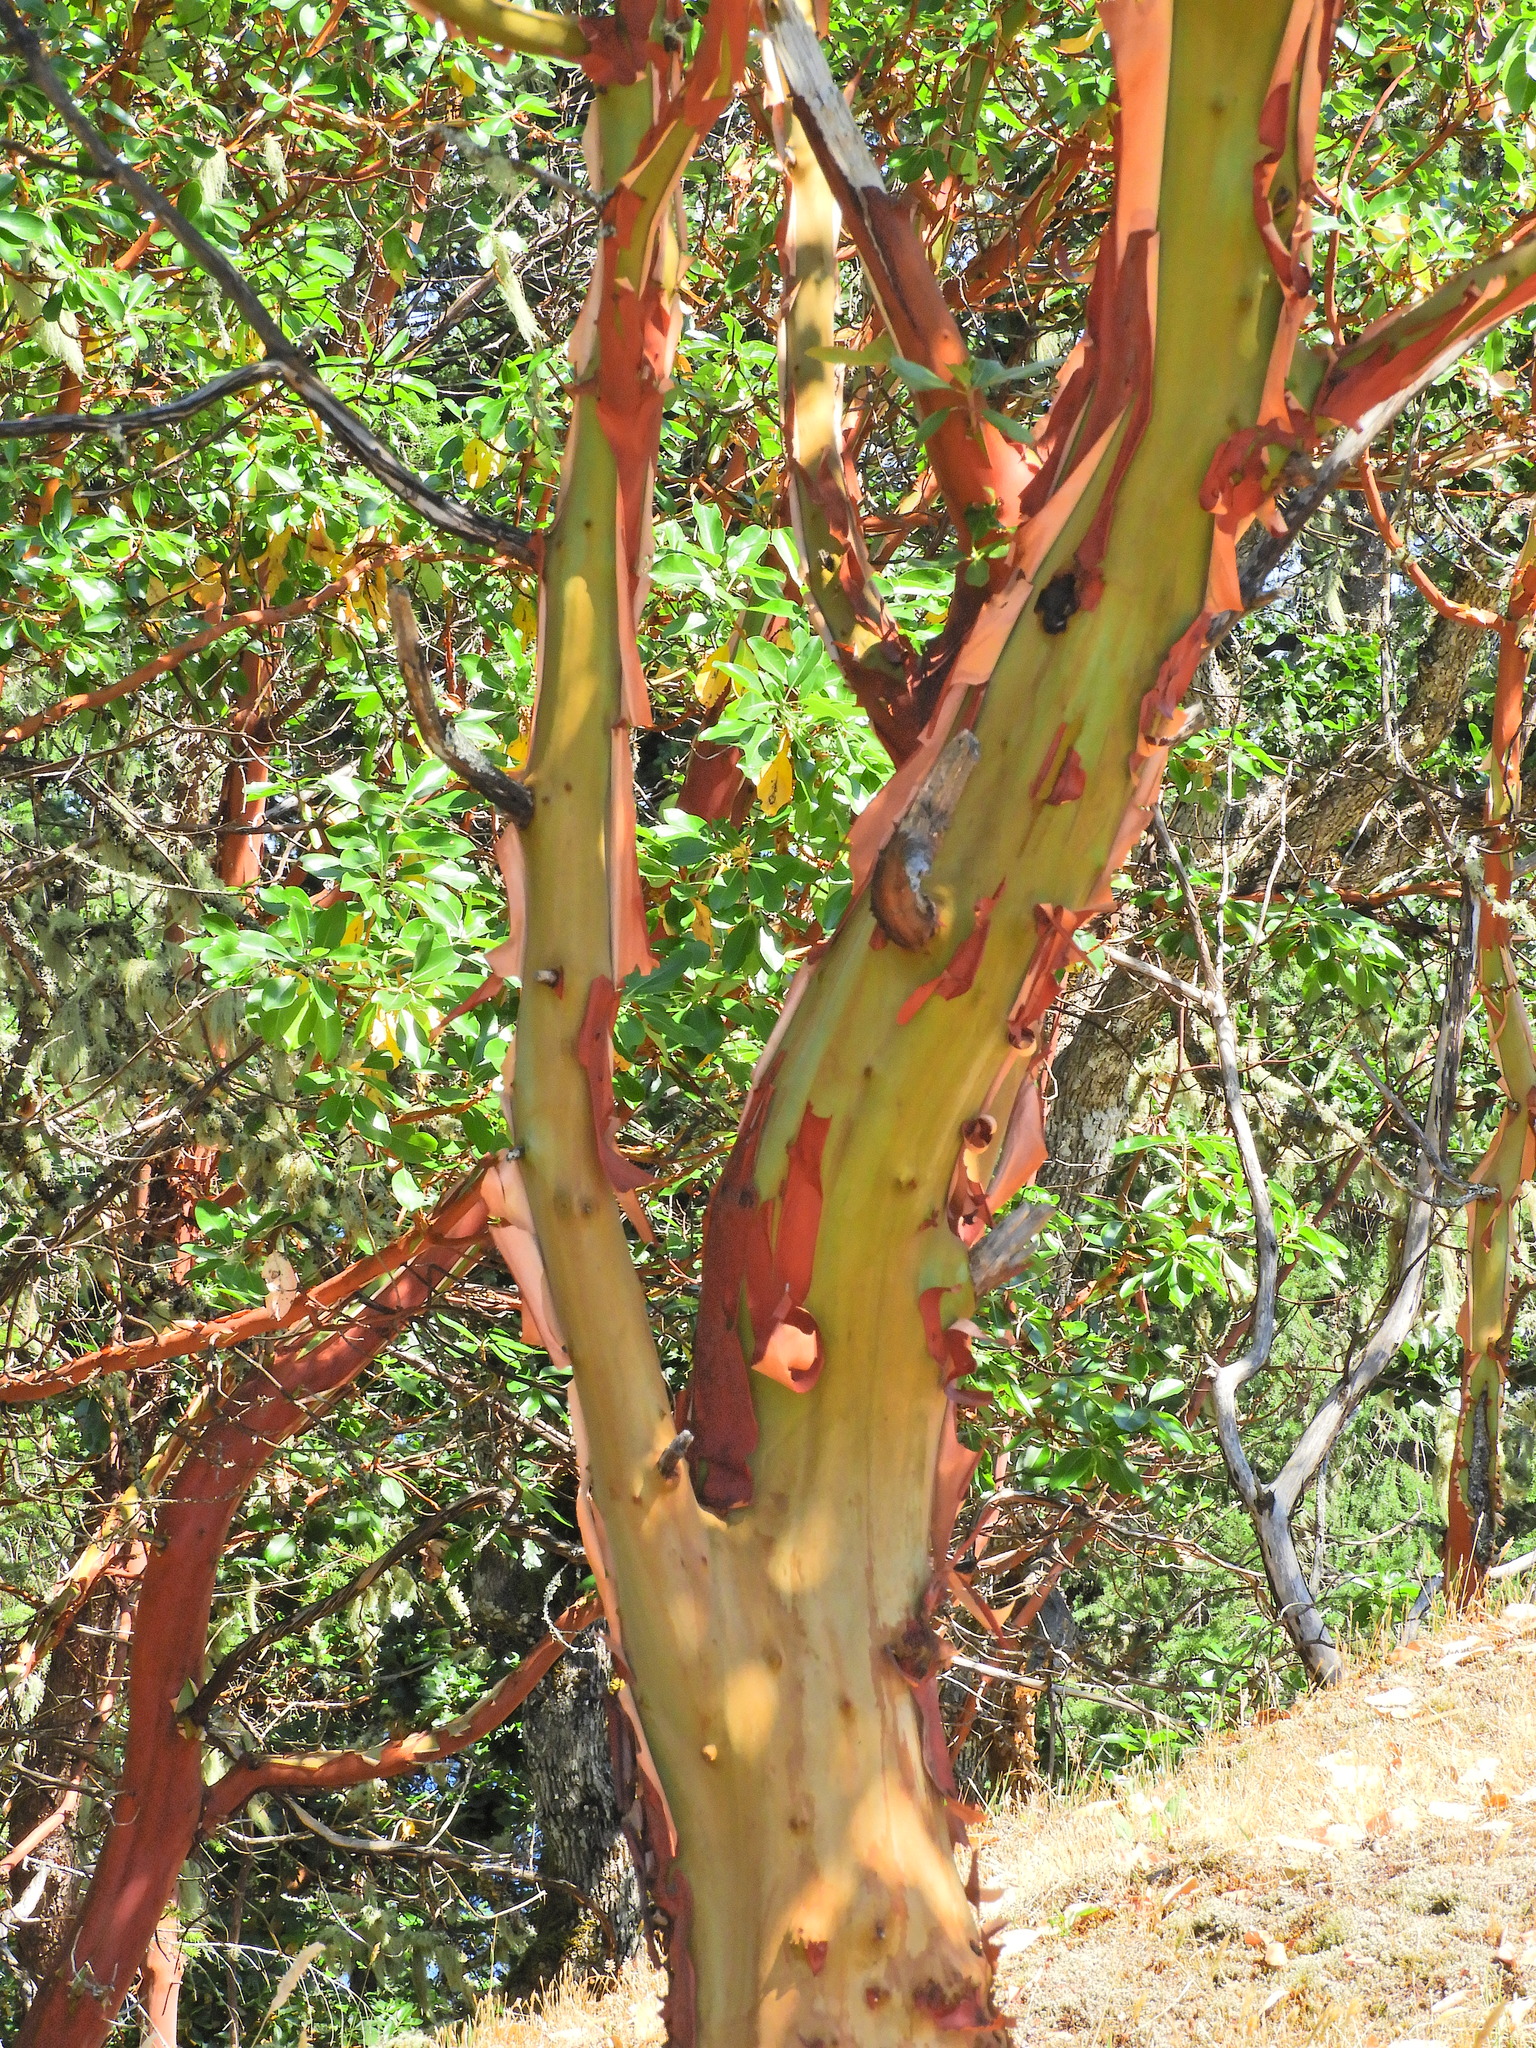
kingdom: Plantae
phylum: Tracheophyta
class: Magnoliopsida
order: Ericales
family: Ericaceae
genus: Arbutus
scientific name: Arbutus menziesii
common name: Pacific madrone
